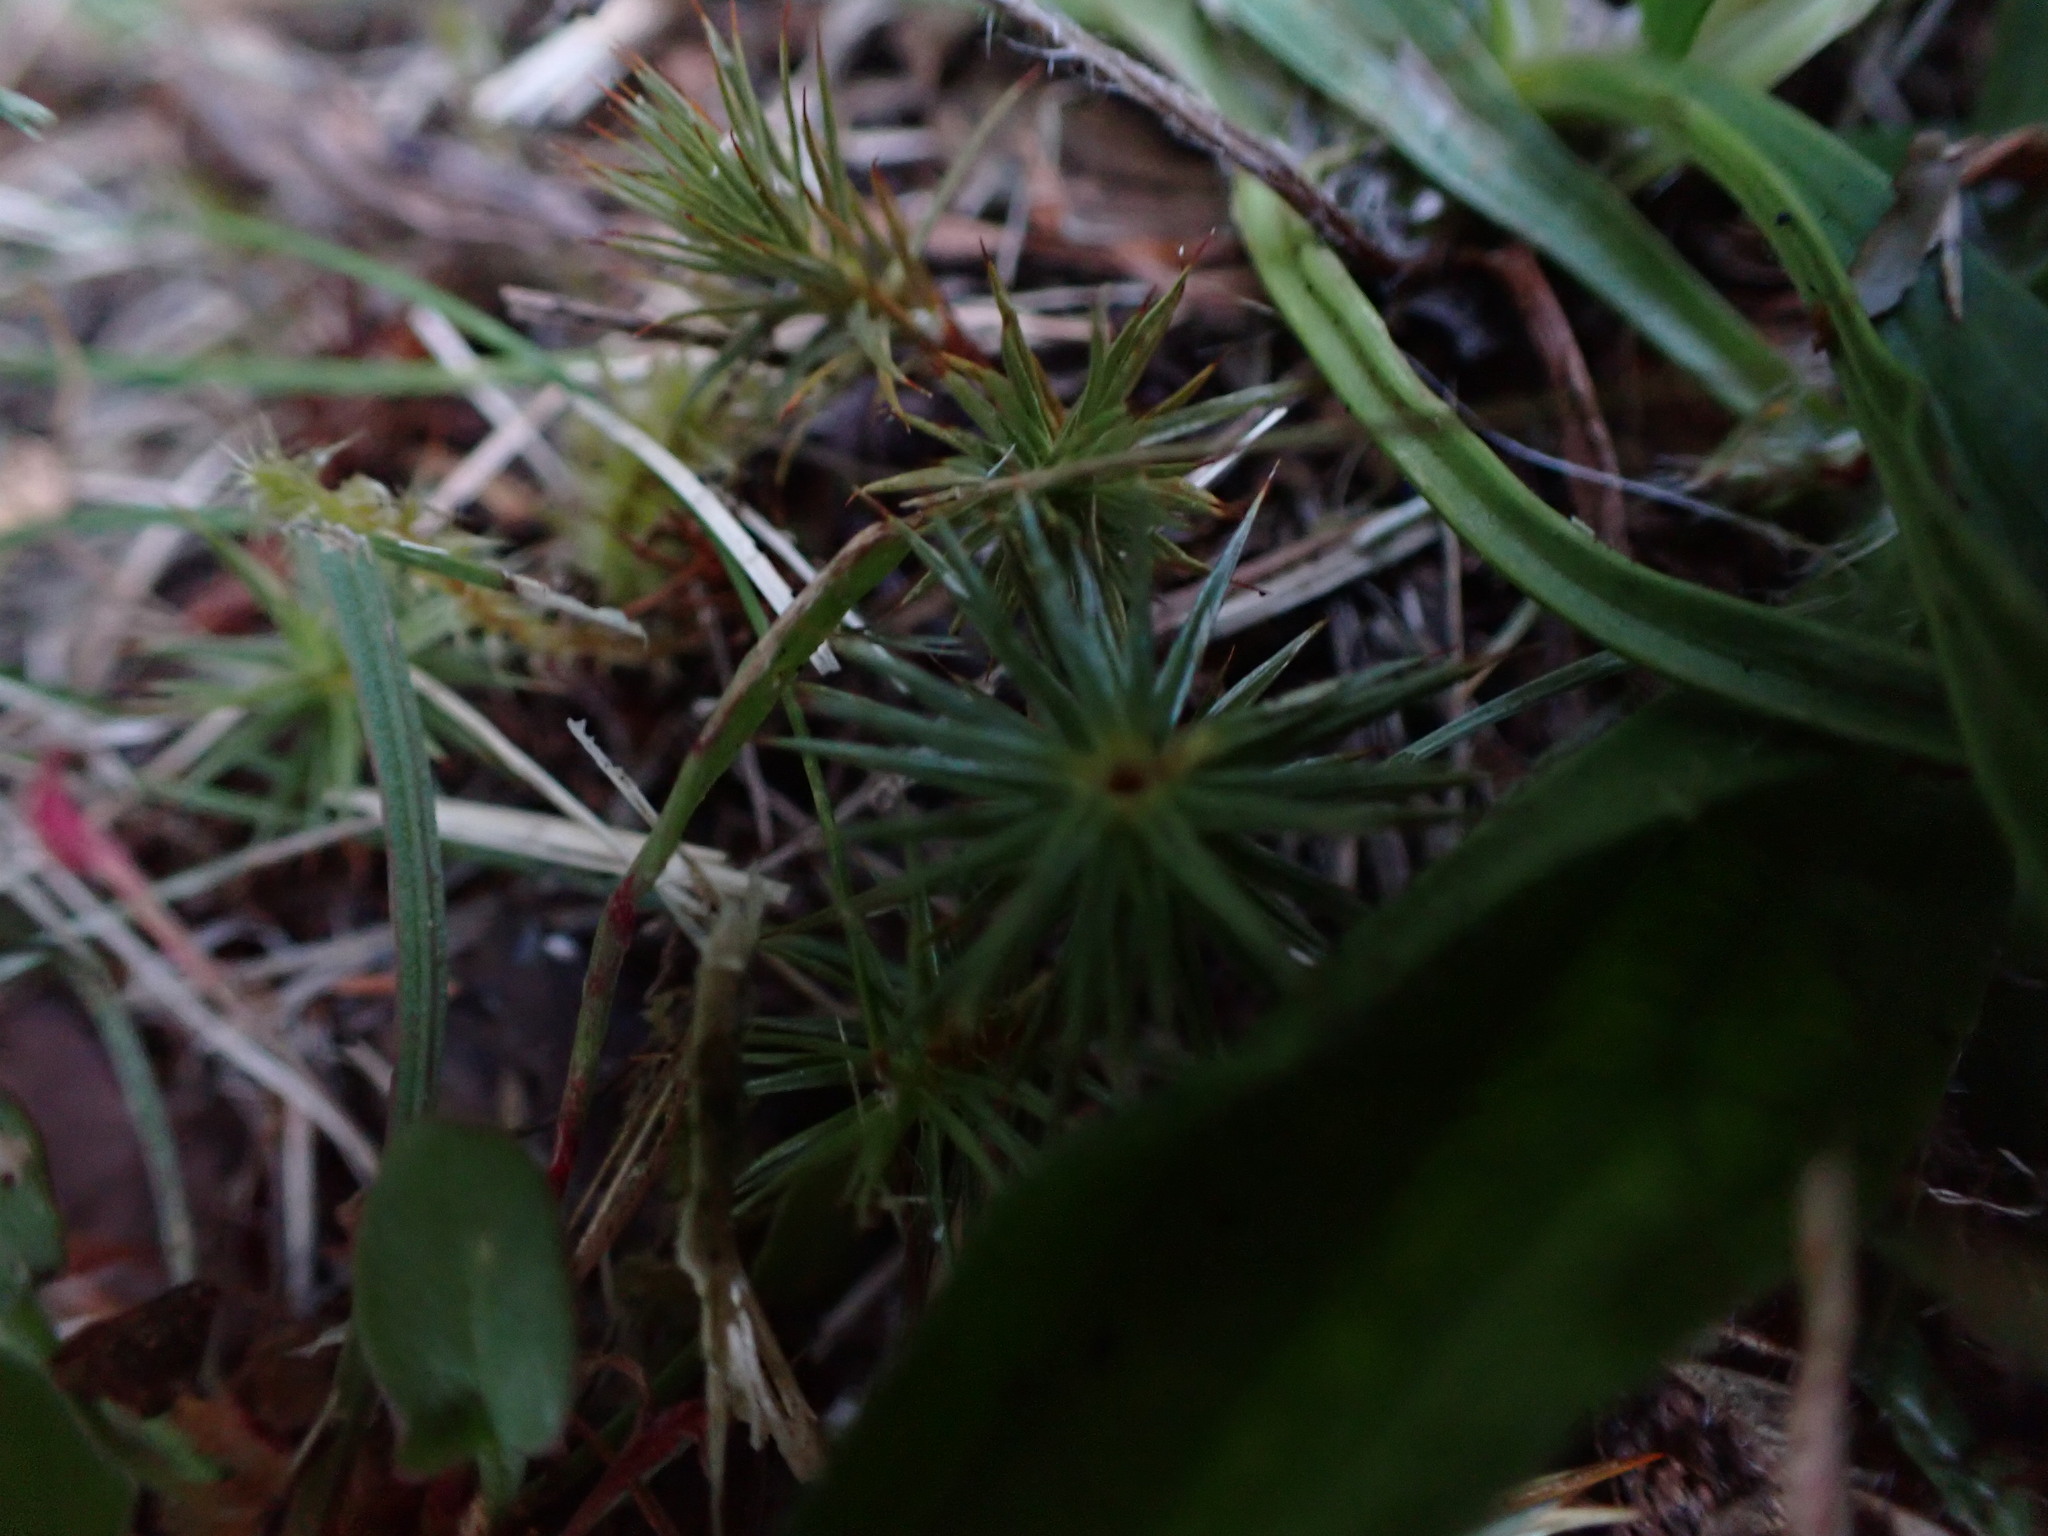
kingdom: Plantae
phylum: Bryophyta
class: Polytrichopsida
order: Polytrichales
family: Polytrichaceae
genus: Polytrichum
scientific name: Polytrichum juniperinum
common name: Juniper haircap moss
